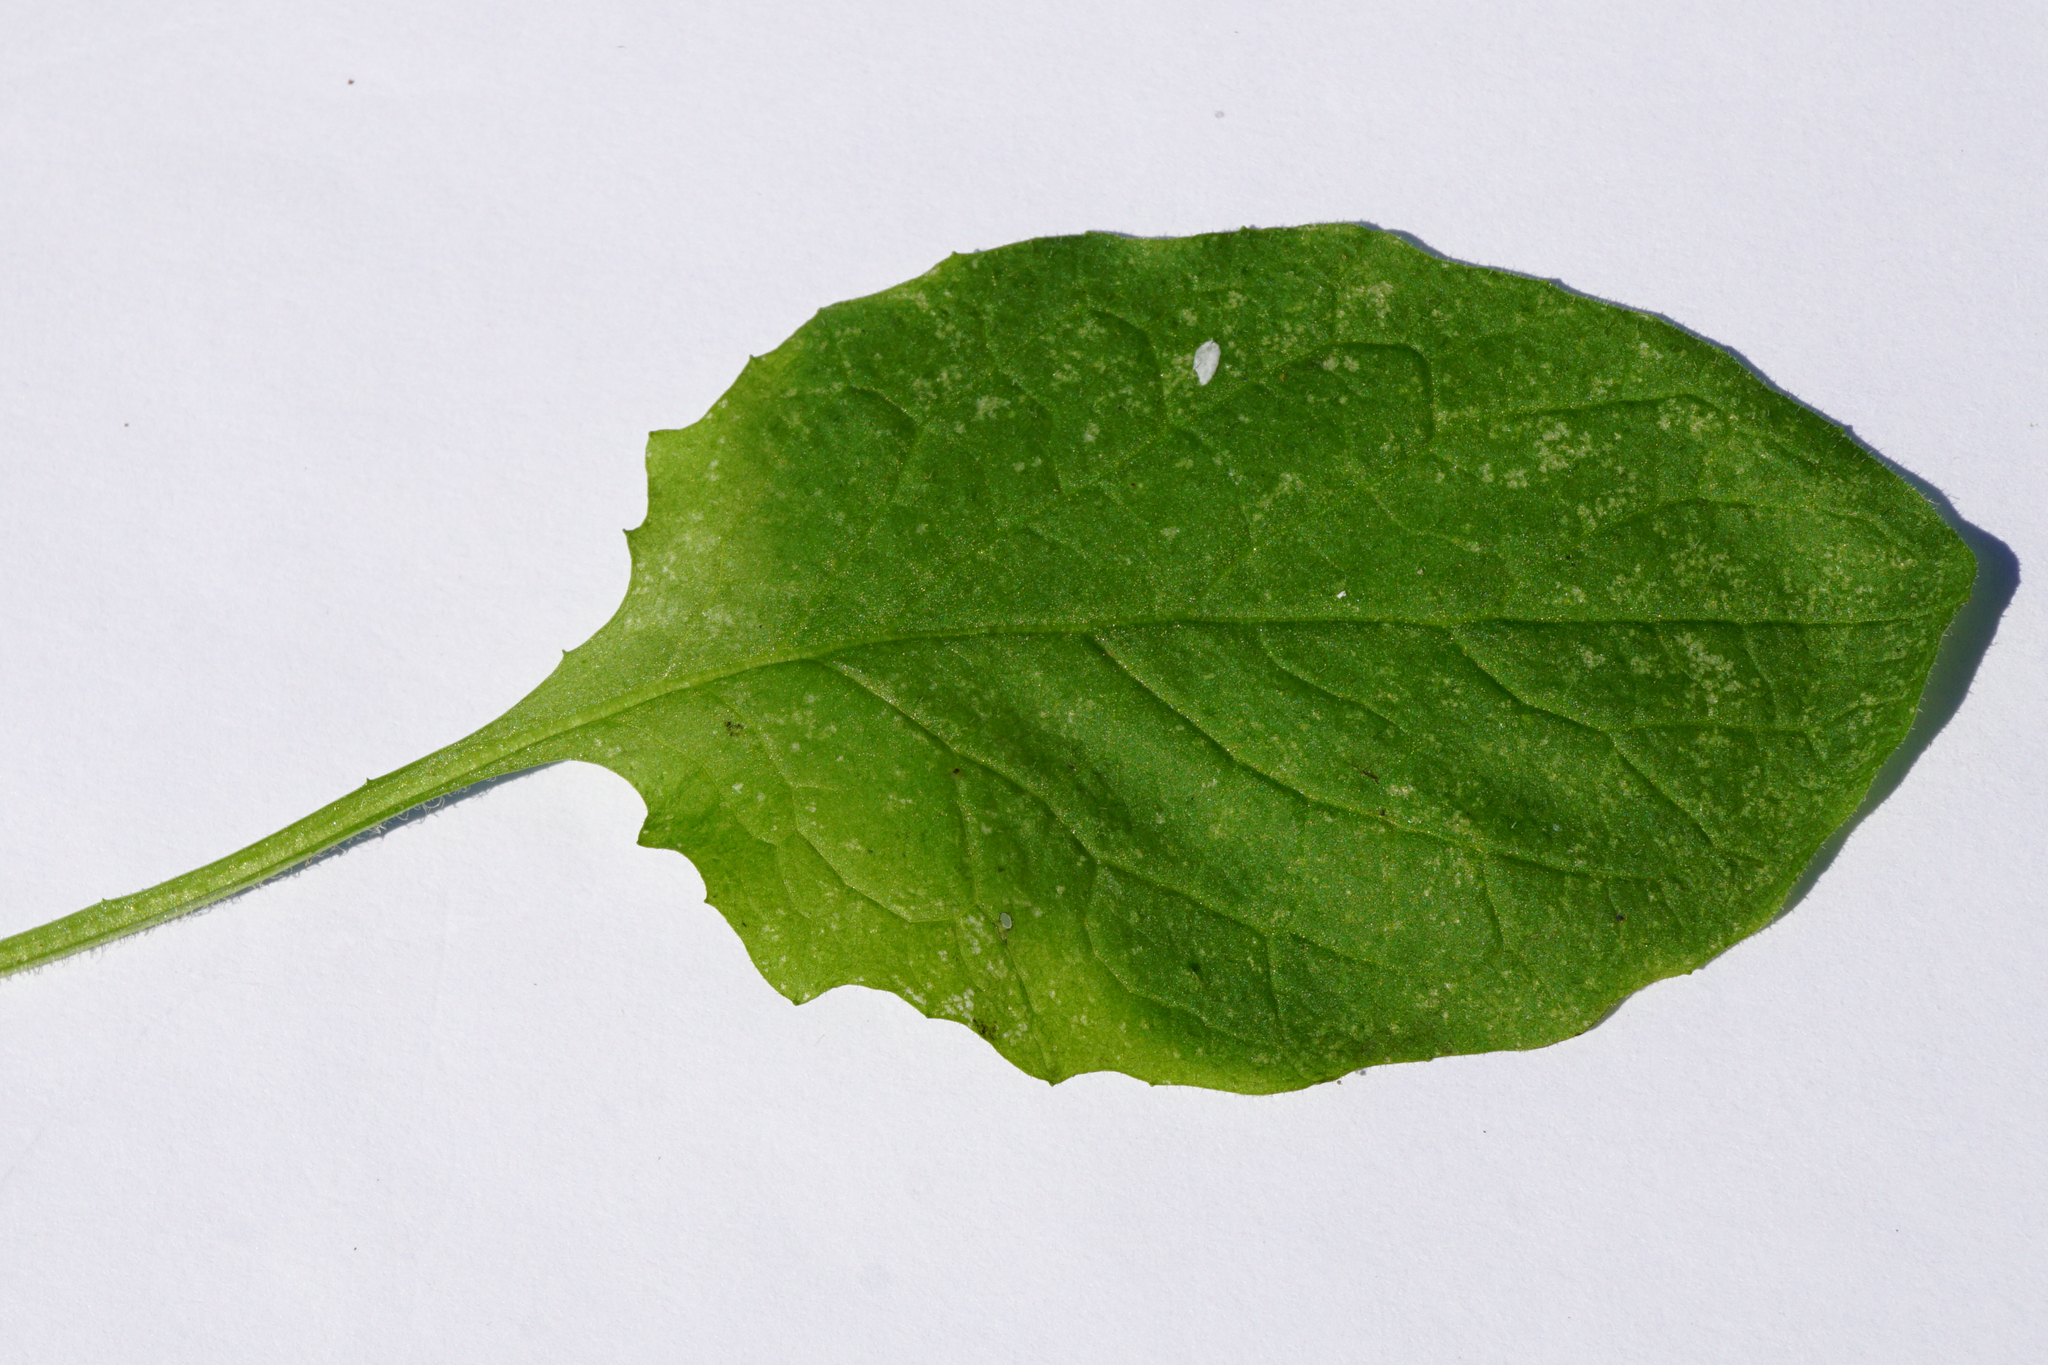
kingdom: Plantae
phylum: Tracheophyta
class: Magnoliopsida
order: Asterales
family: Asteraceae
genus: Lapsana
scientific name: Lapsana communis
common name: Nipplewort
